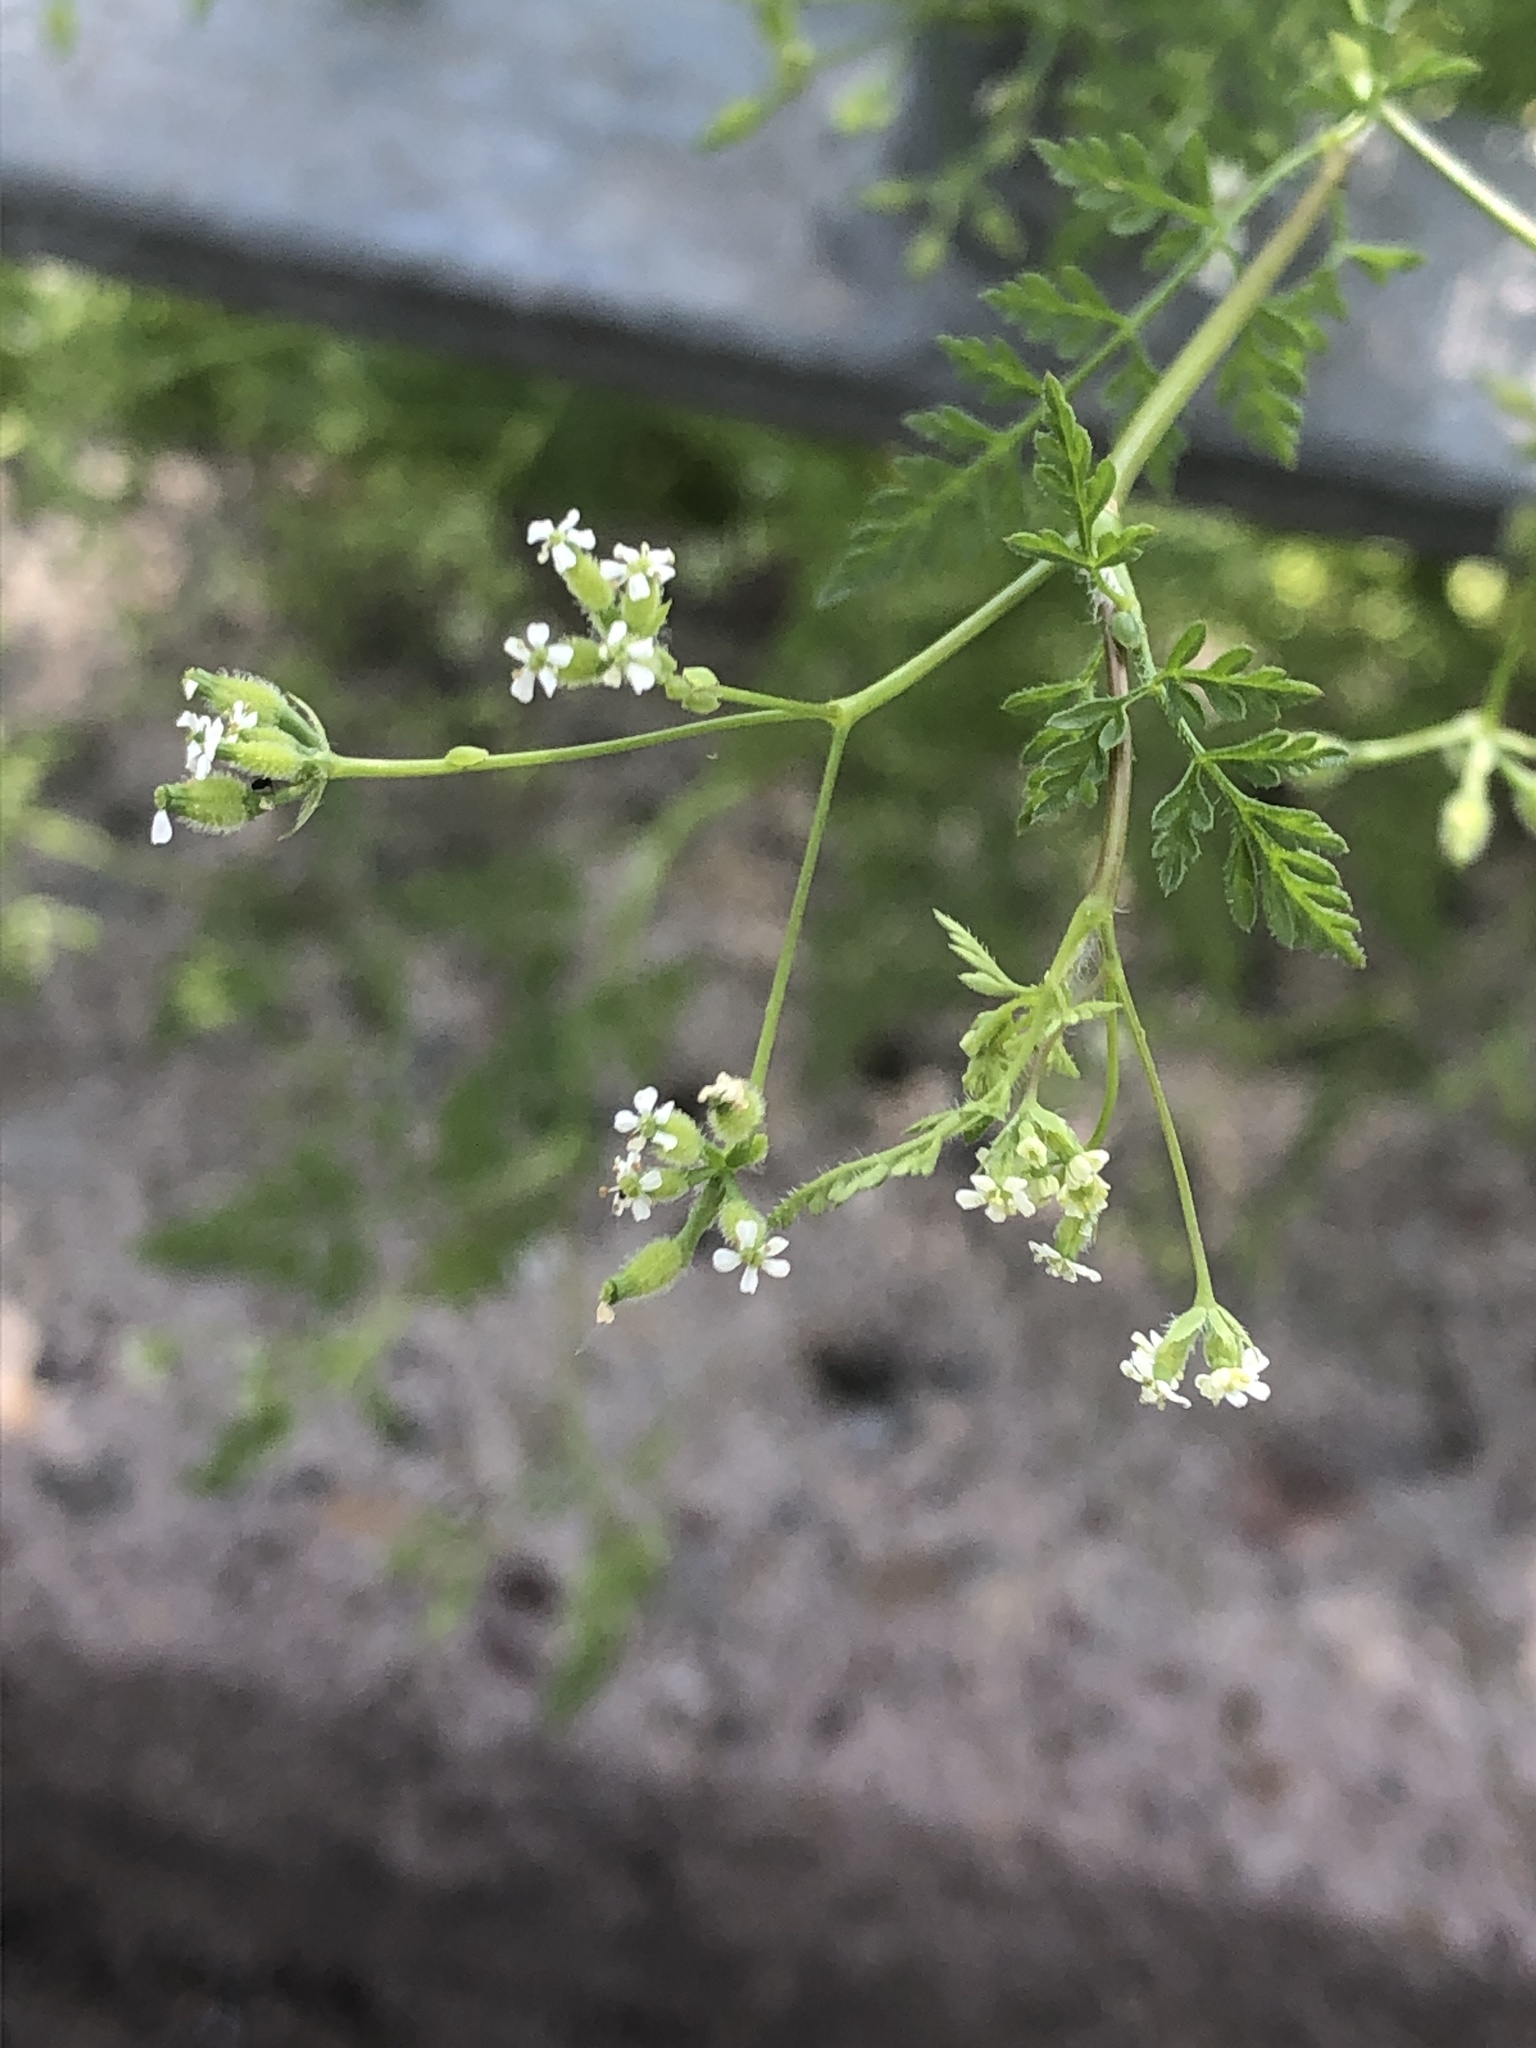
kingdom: Plantae
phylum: Tracheophyta
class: Magnoliopsida
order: Apiales
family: Apiaceae
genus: Anthriscus
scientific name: Anthriscus caucalis
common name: Bur chervil
